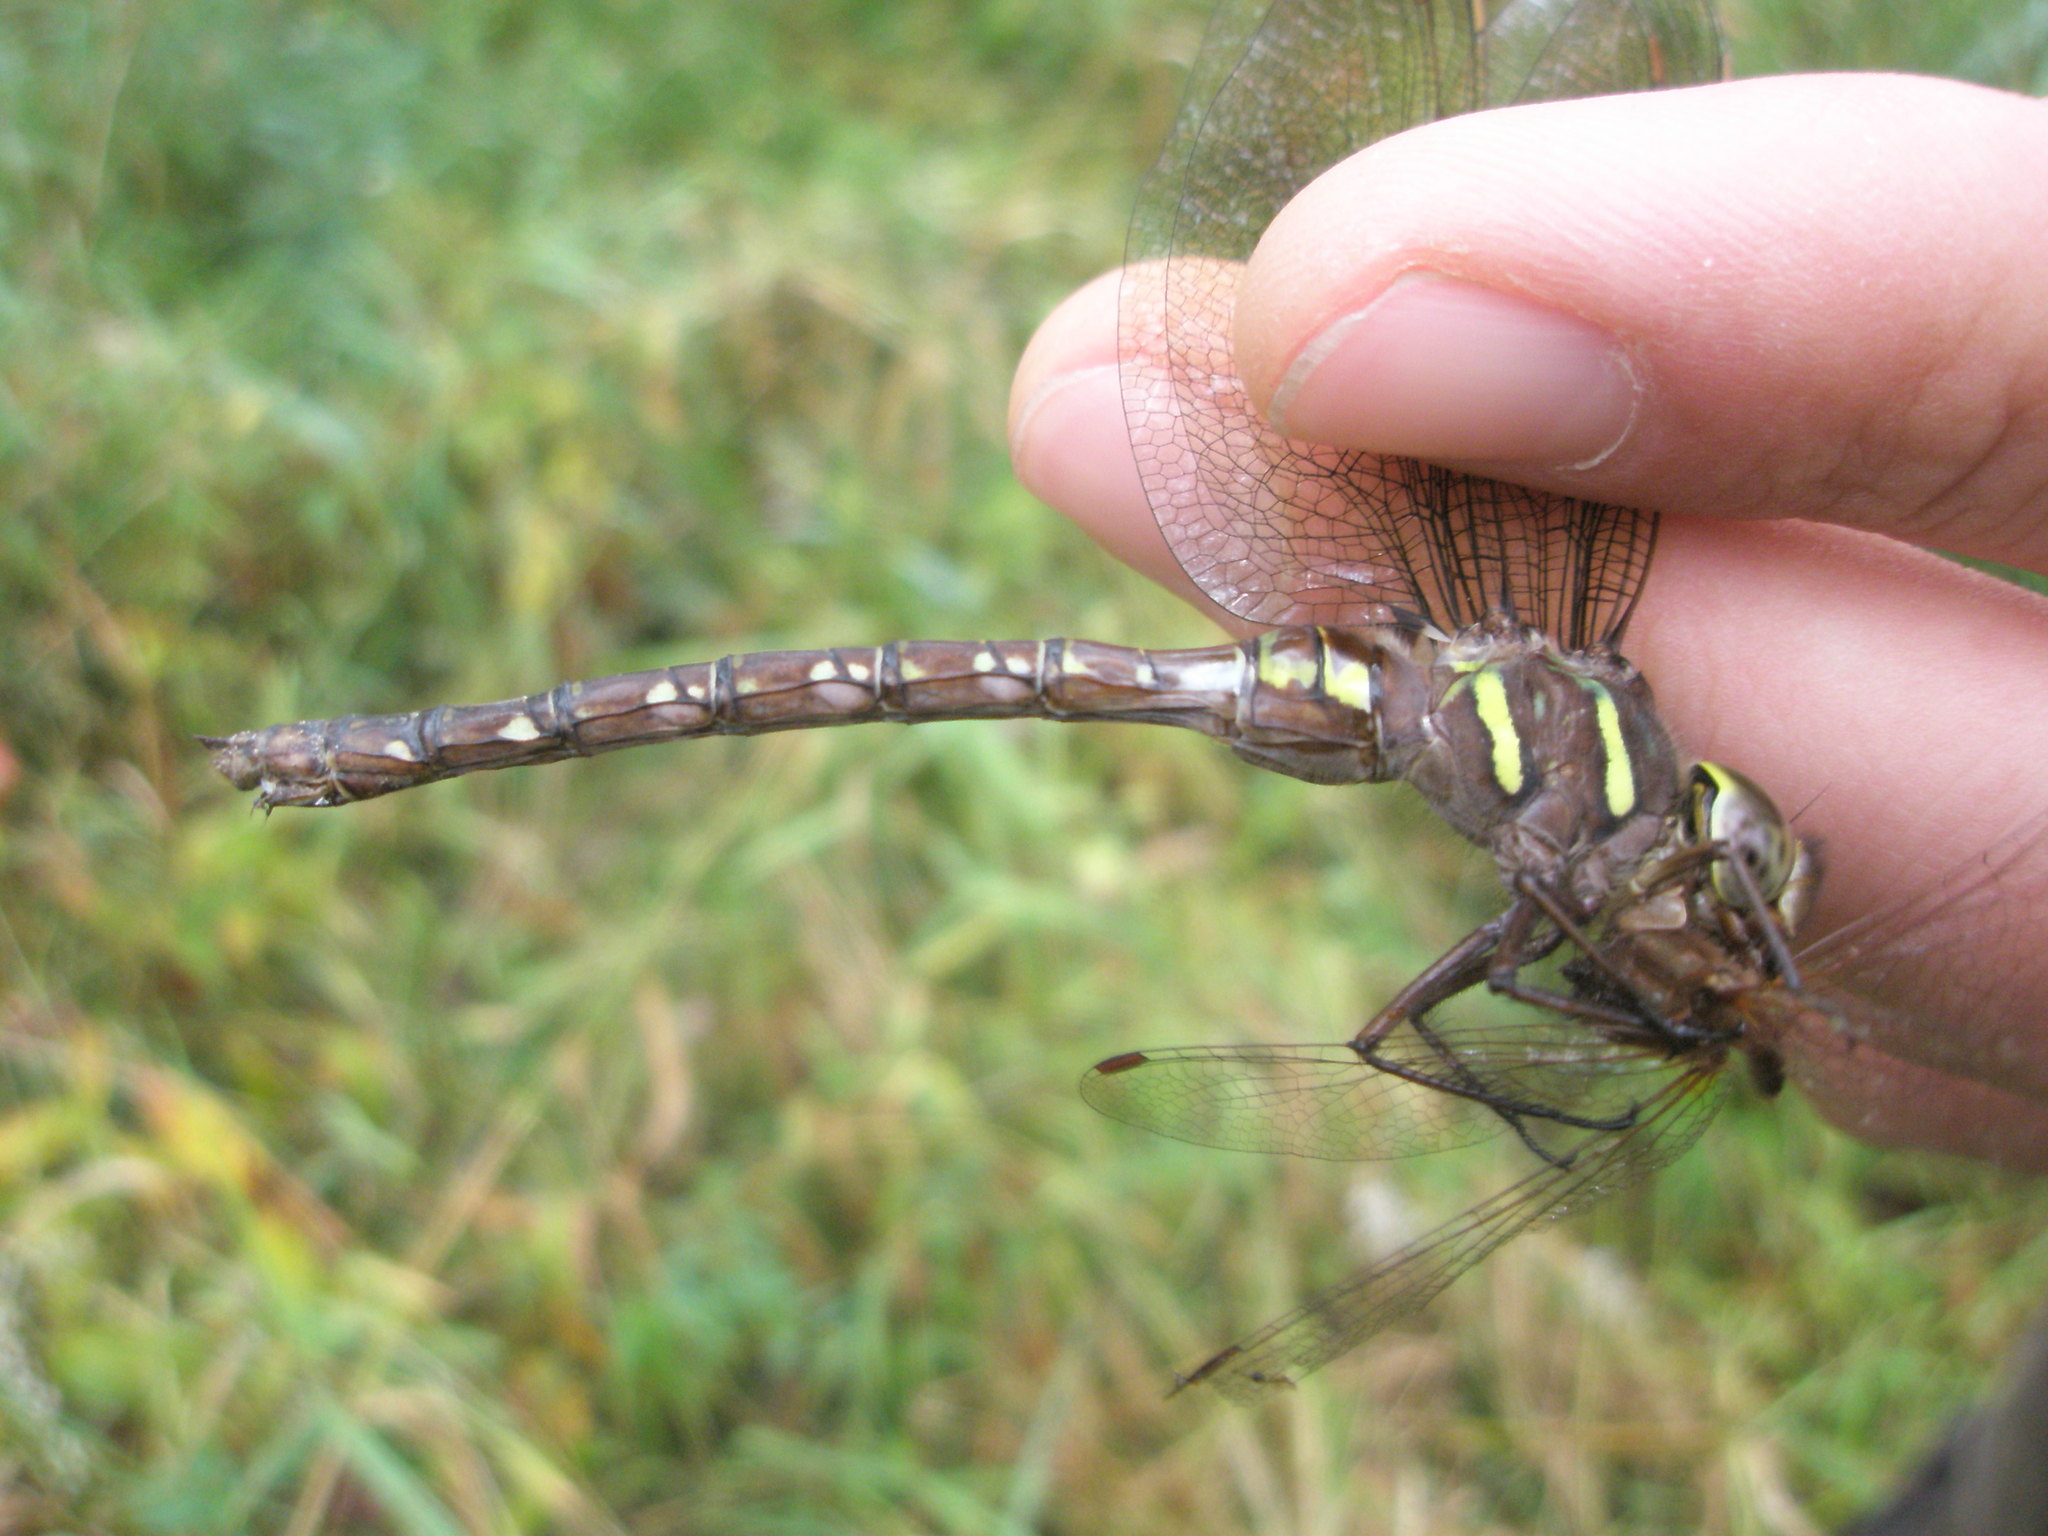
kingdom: Animalia
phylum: Arthropoda
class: Insecta
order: Odonata
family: Aeshnidae
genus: Aeshna
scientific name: Aeshna umbrosa
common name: Shadow darner
